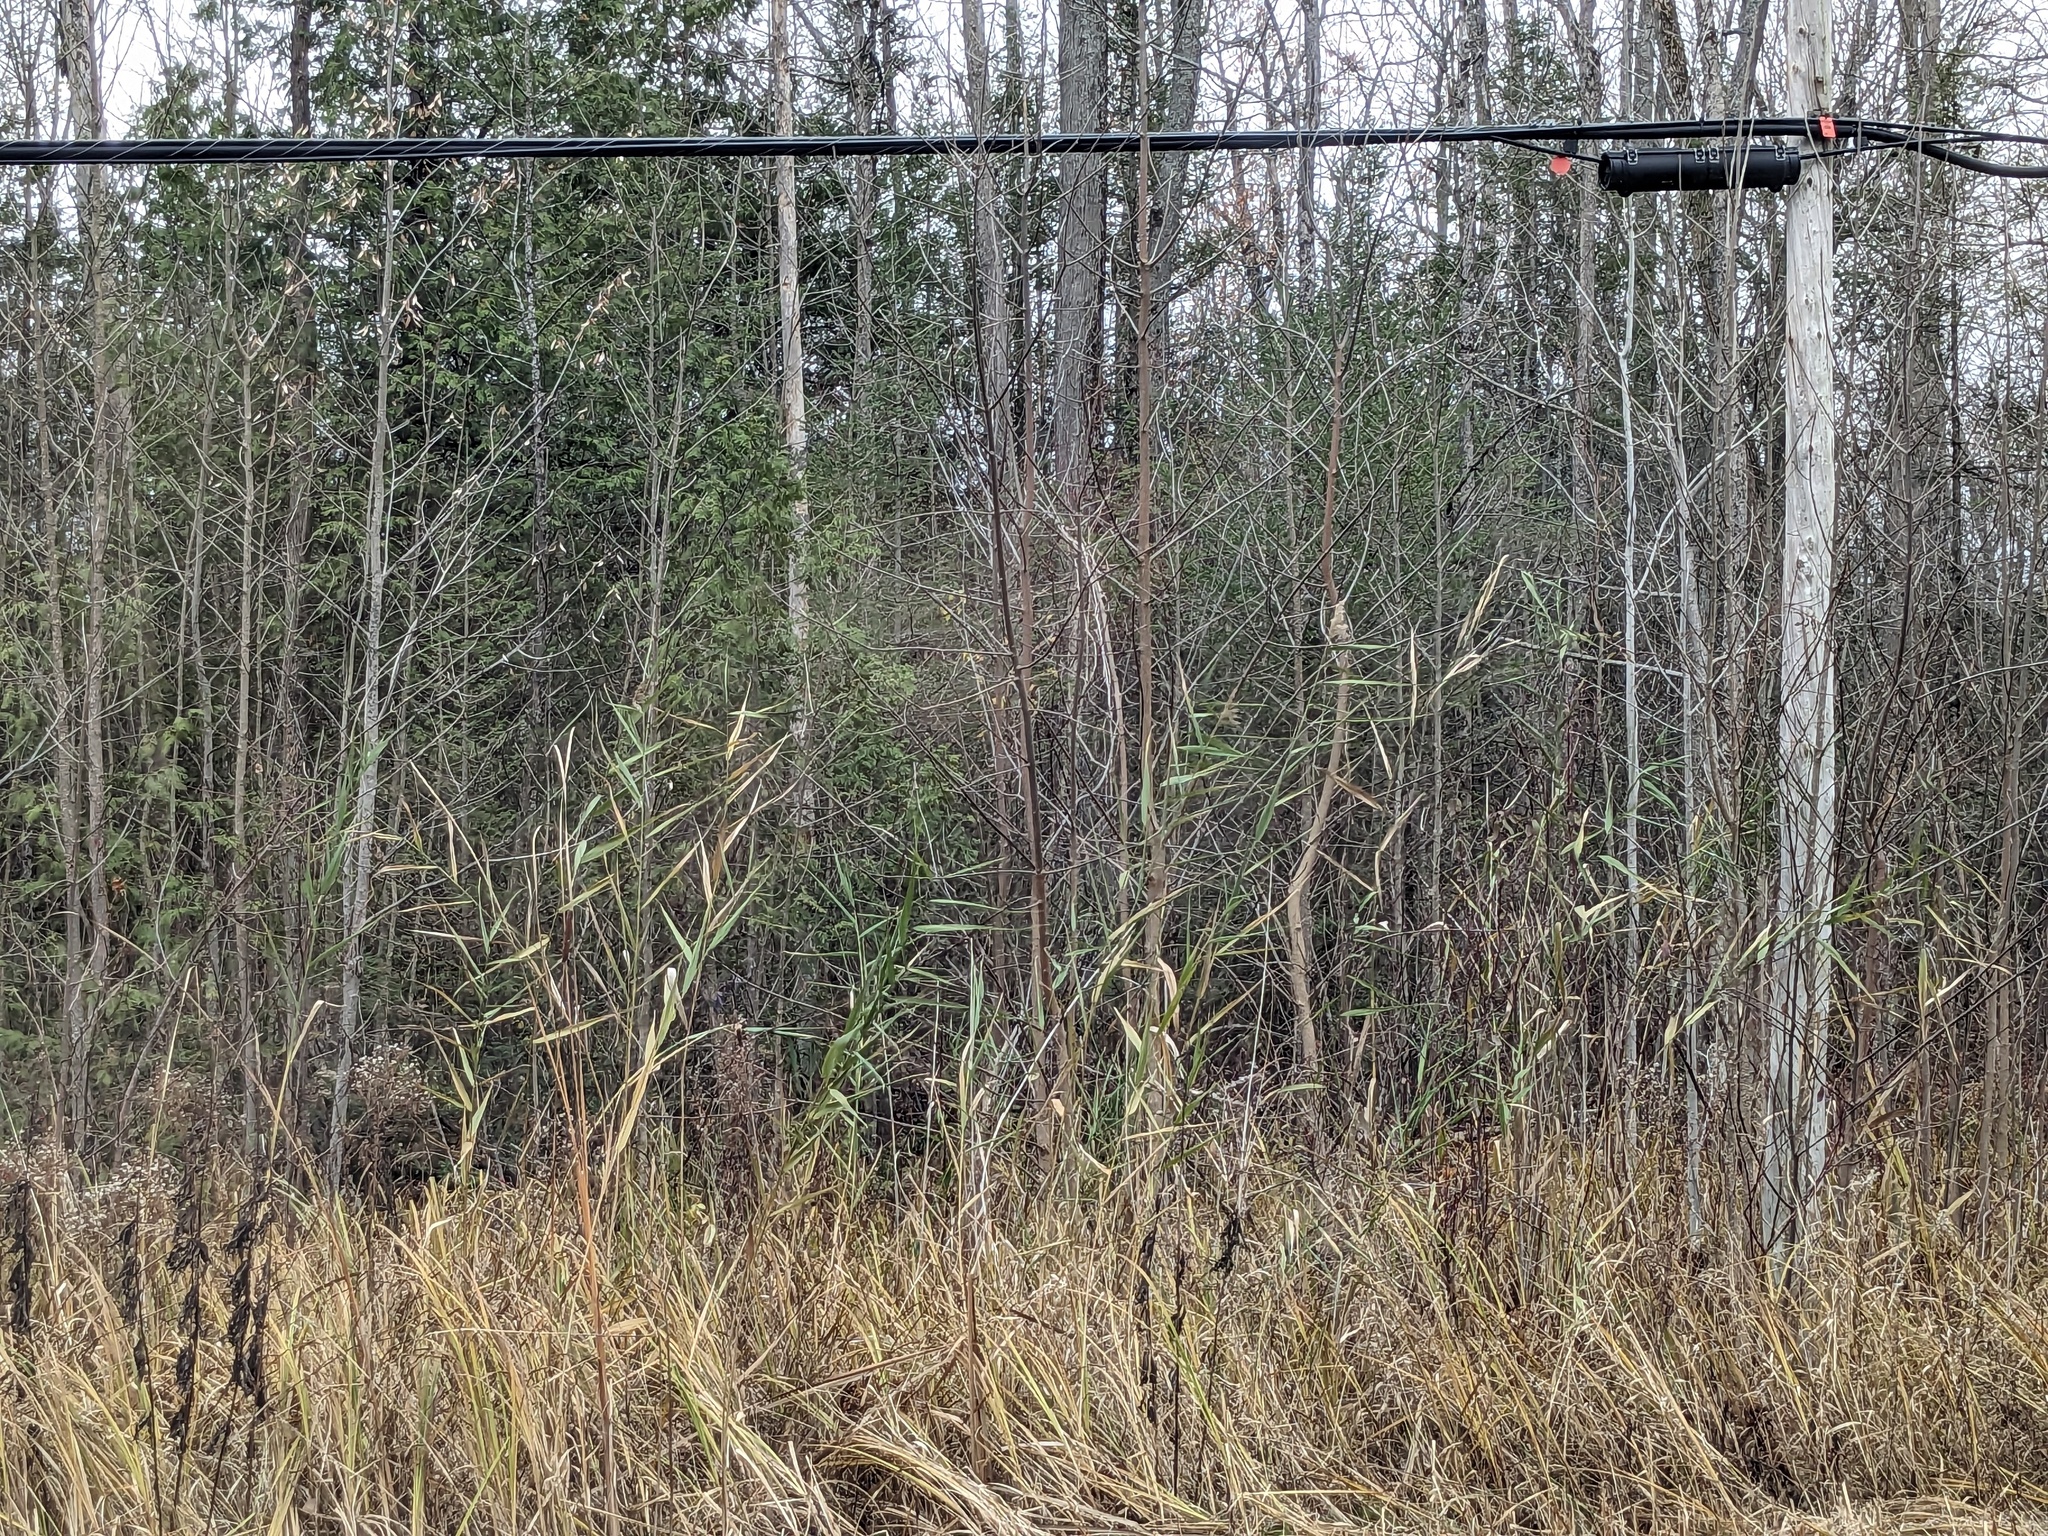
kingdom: Plantae
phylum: Tracheophyta
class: Liliopsida
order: Poales
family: Poaceae
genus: Phragmites
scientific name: Phragmites australis
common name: Common reed
